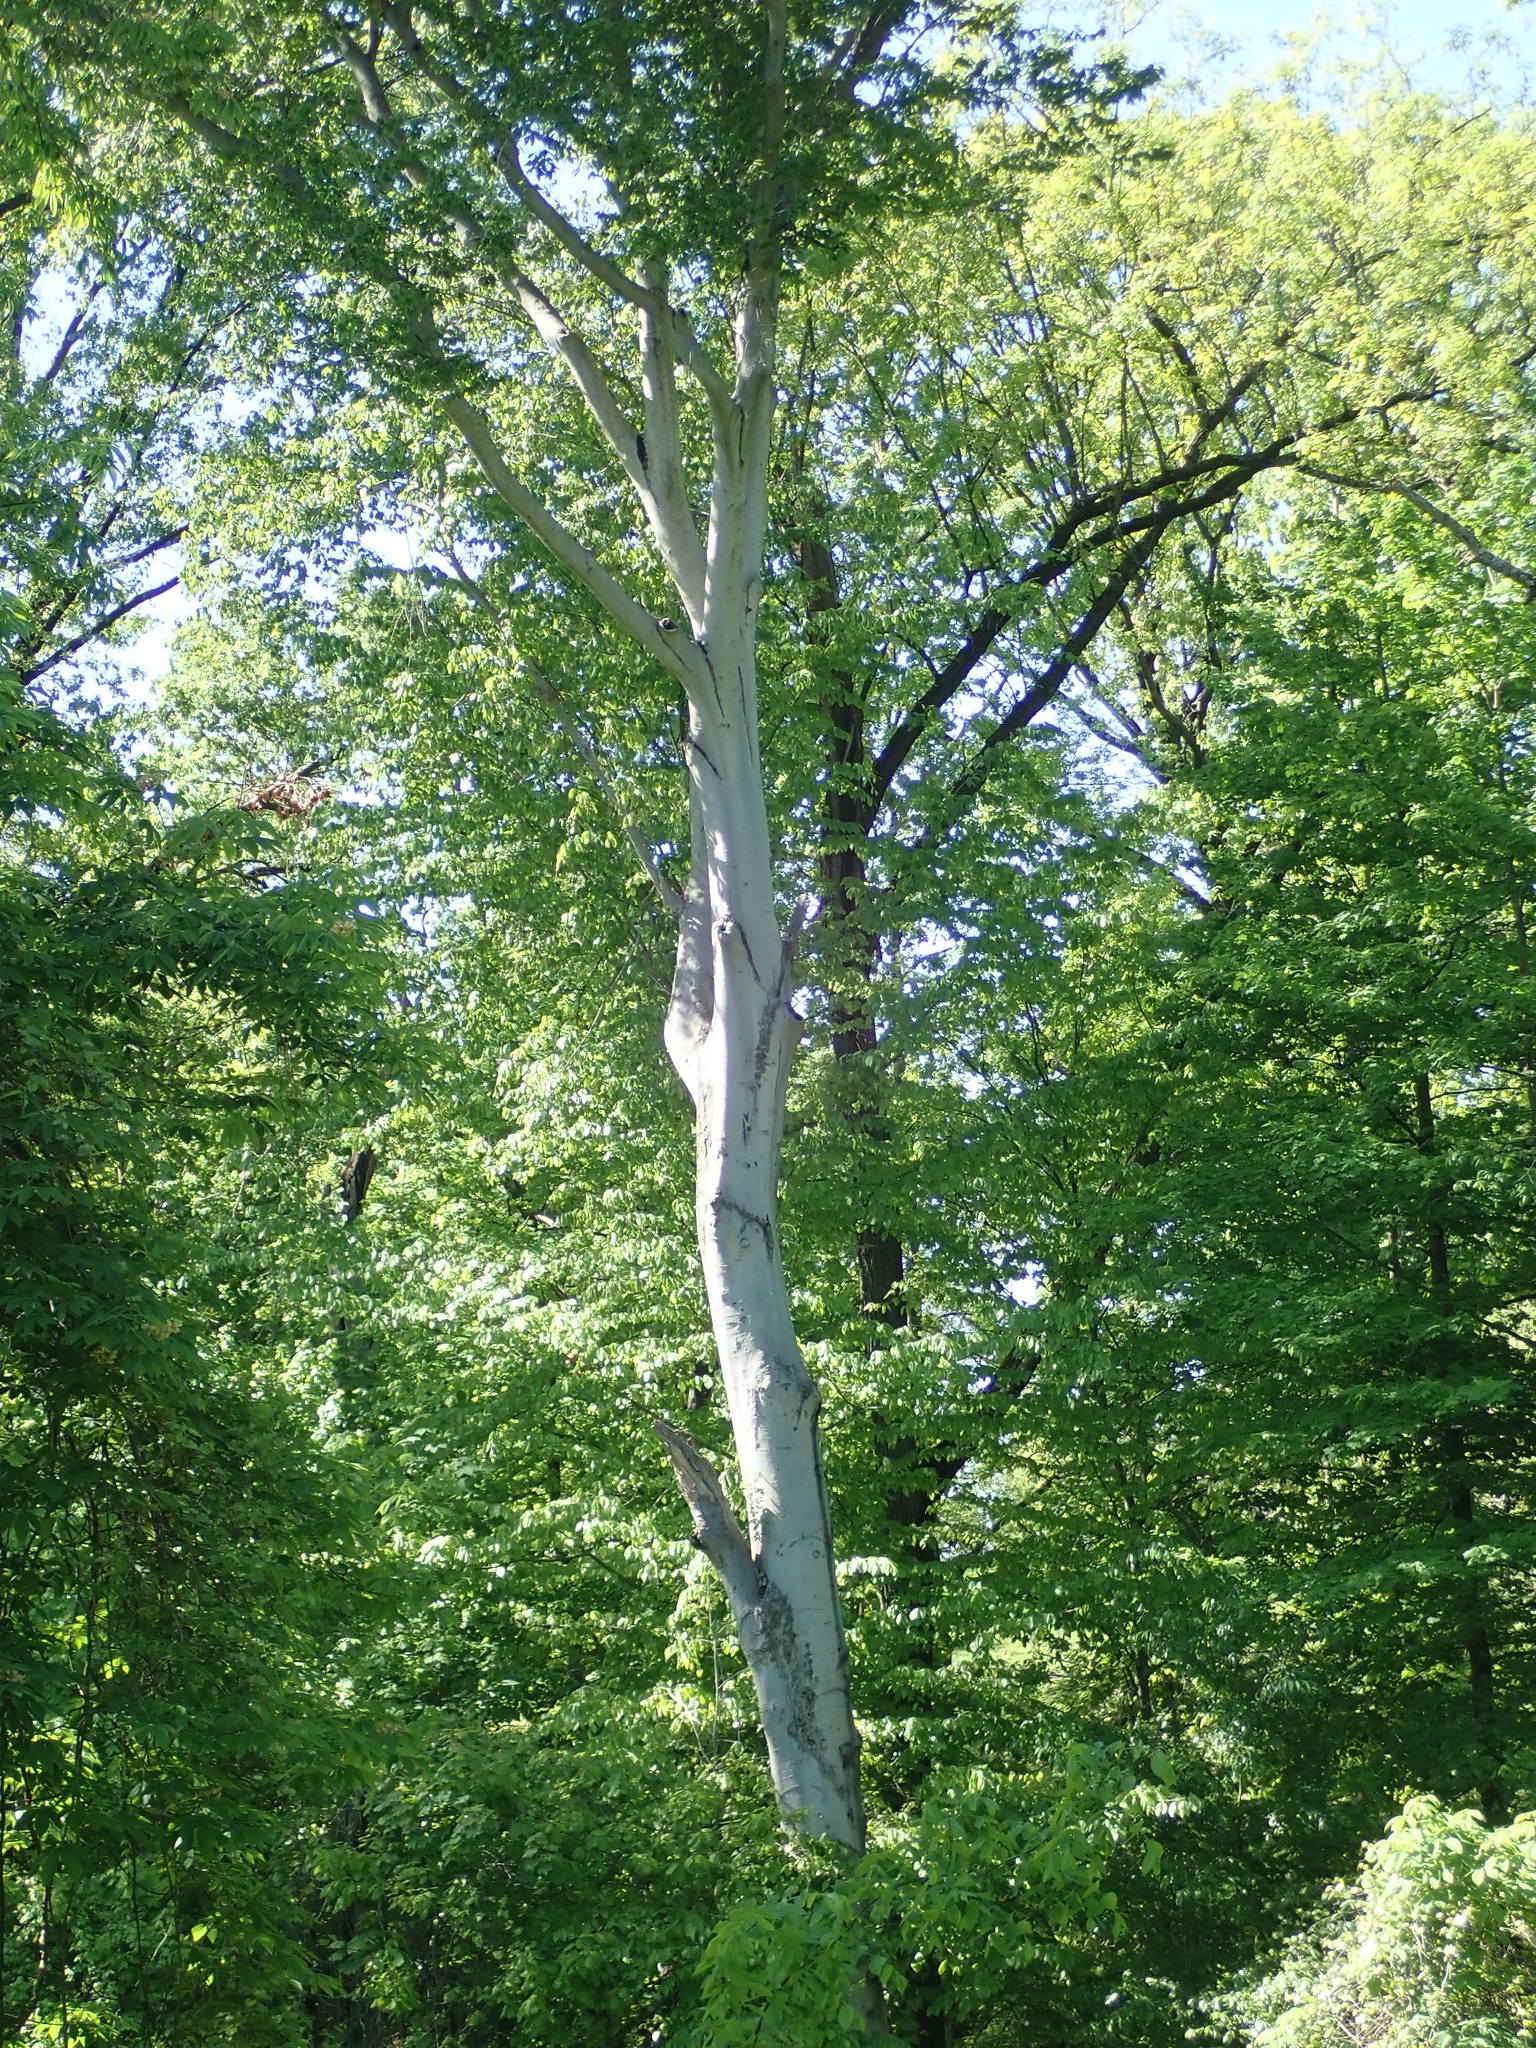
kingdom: Plantae
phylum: Tracheophyta
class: Magnoliopsida
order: Proteales
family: Platanaceae
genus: Platanus
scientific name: Platanus occidentalis
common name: American sycamore
